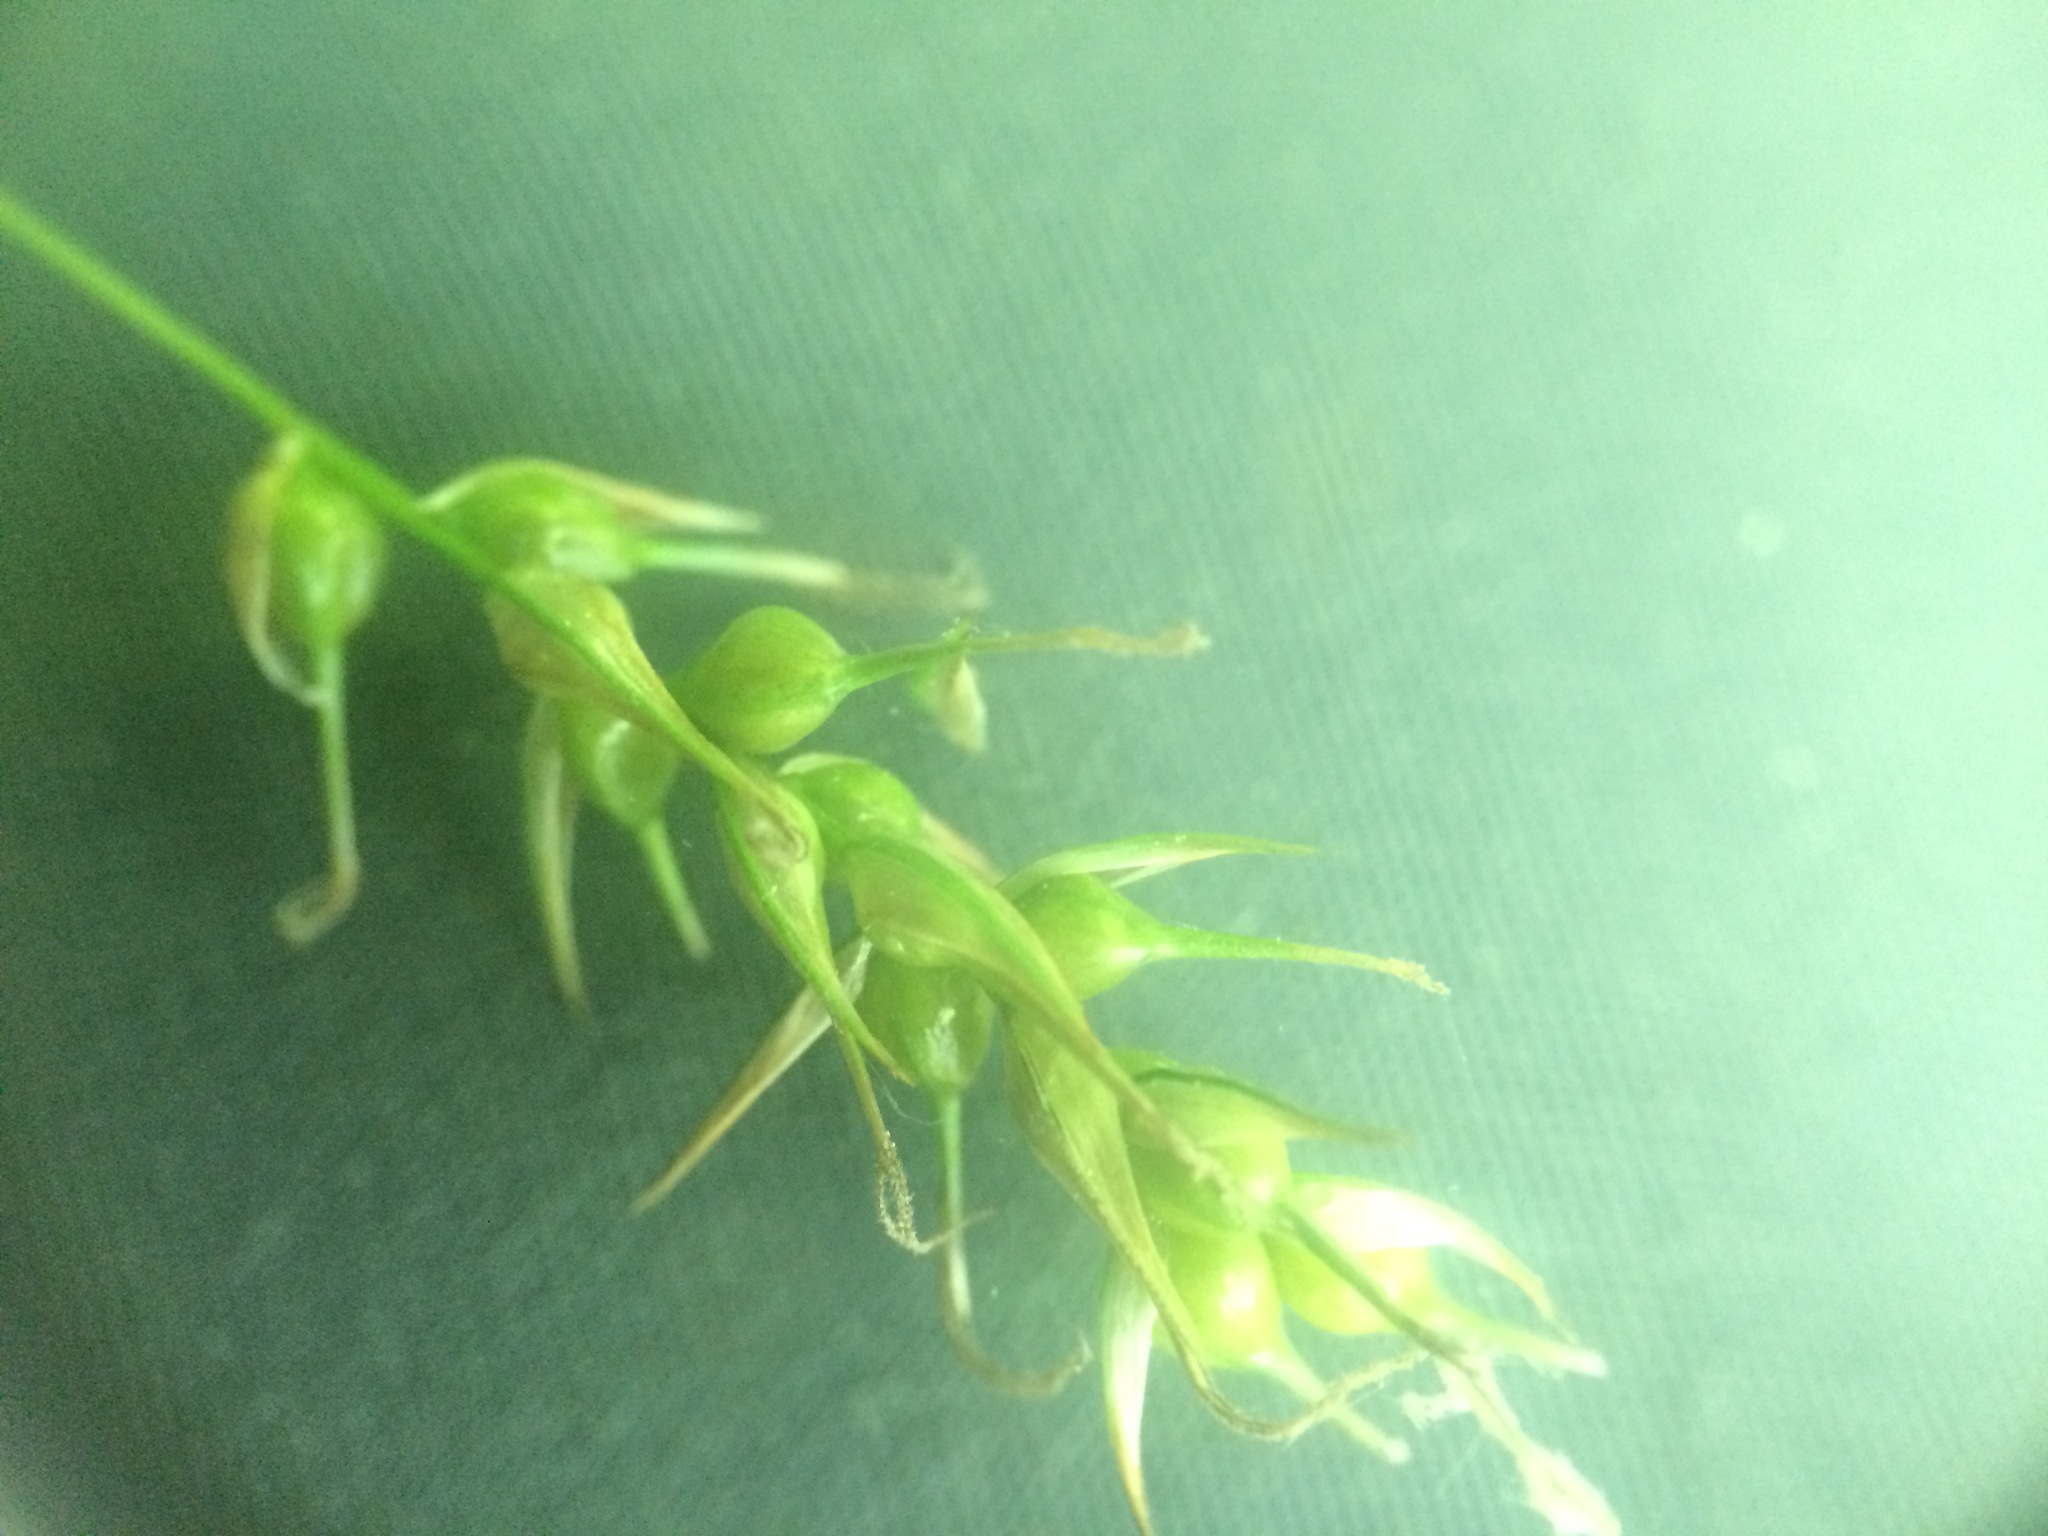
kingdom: Plantae
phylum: Tracheophyta
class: Liliopsida
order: Poales
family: Cyperaceae
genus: Carex
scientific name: Carex sprengelii
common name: Long-beaked sedge
